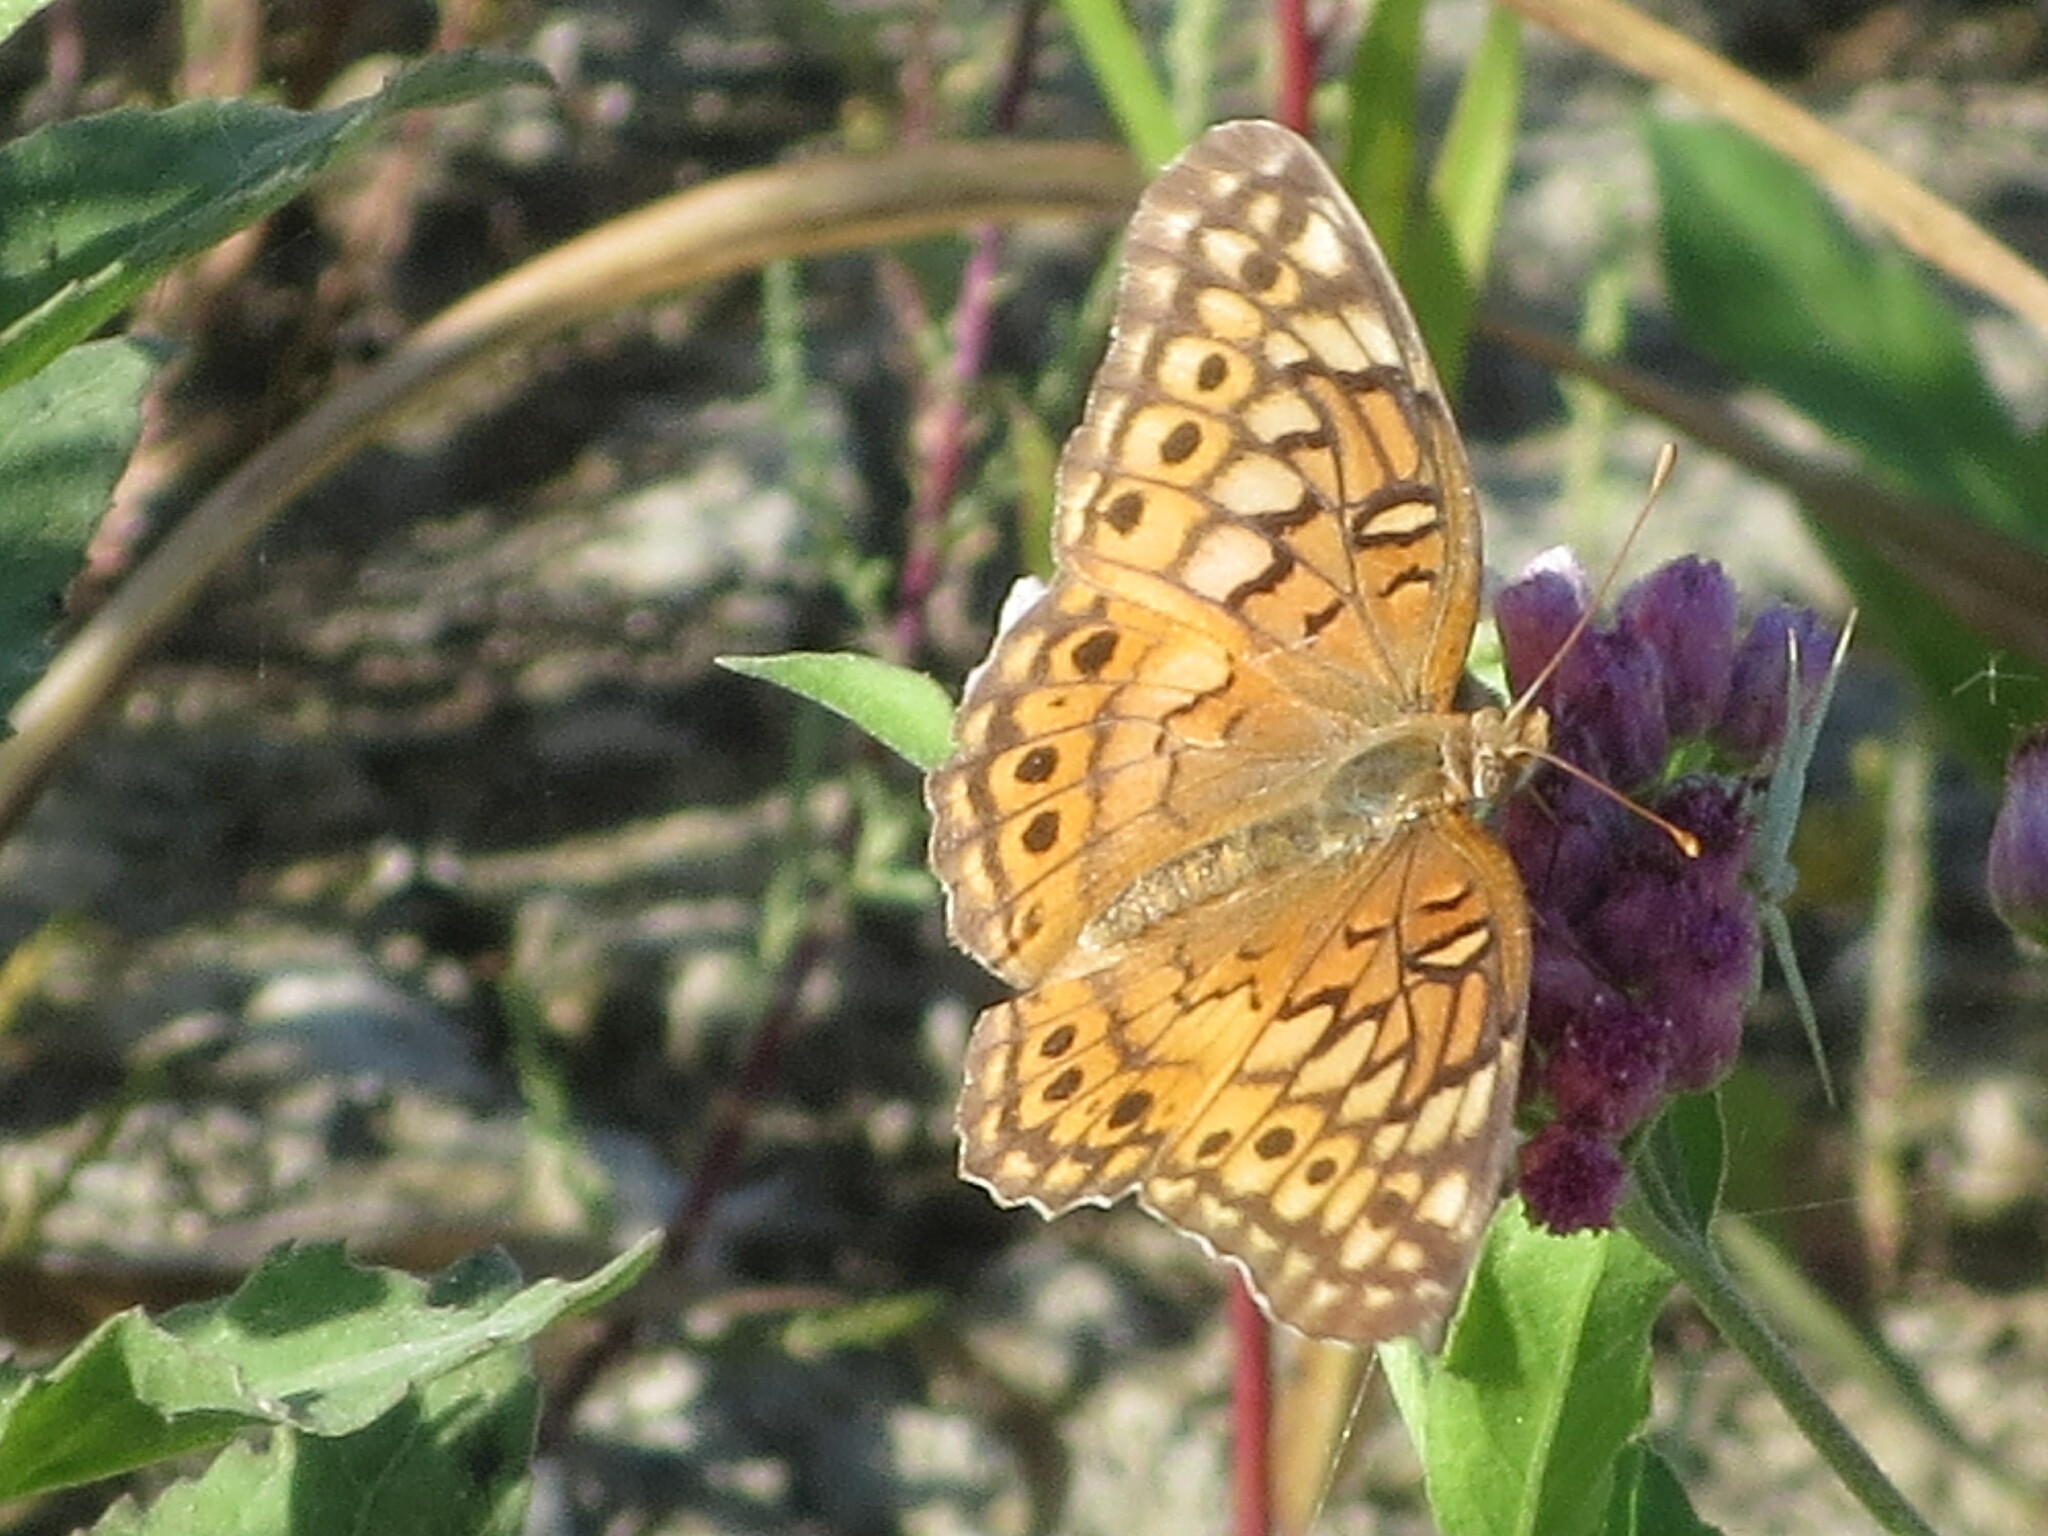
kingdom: Animalia
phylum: Arthropoda
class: Insecta
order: Lepidoptera
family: Nymphalidae
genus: Euptoieta
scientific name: Euptoieta claudia
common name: Variegated fritillary
